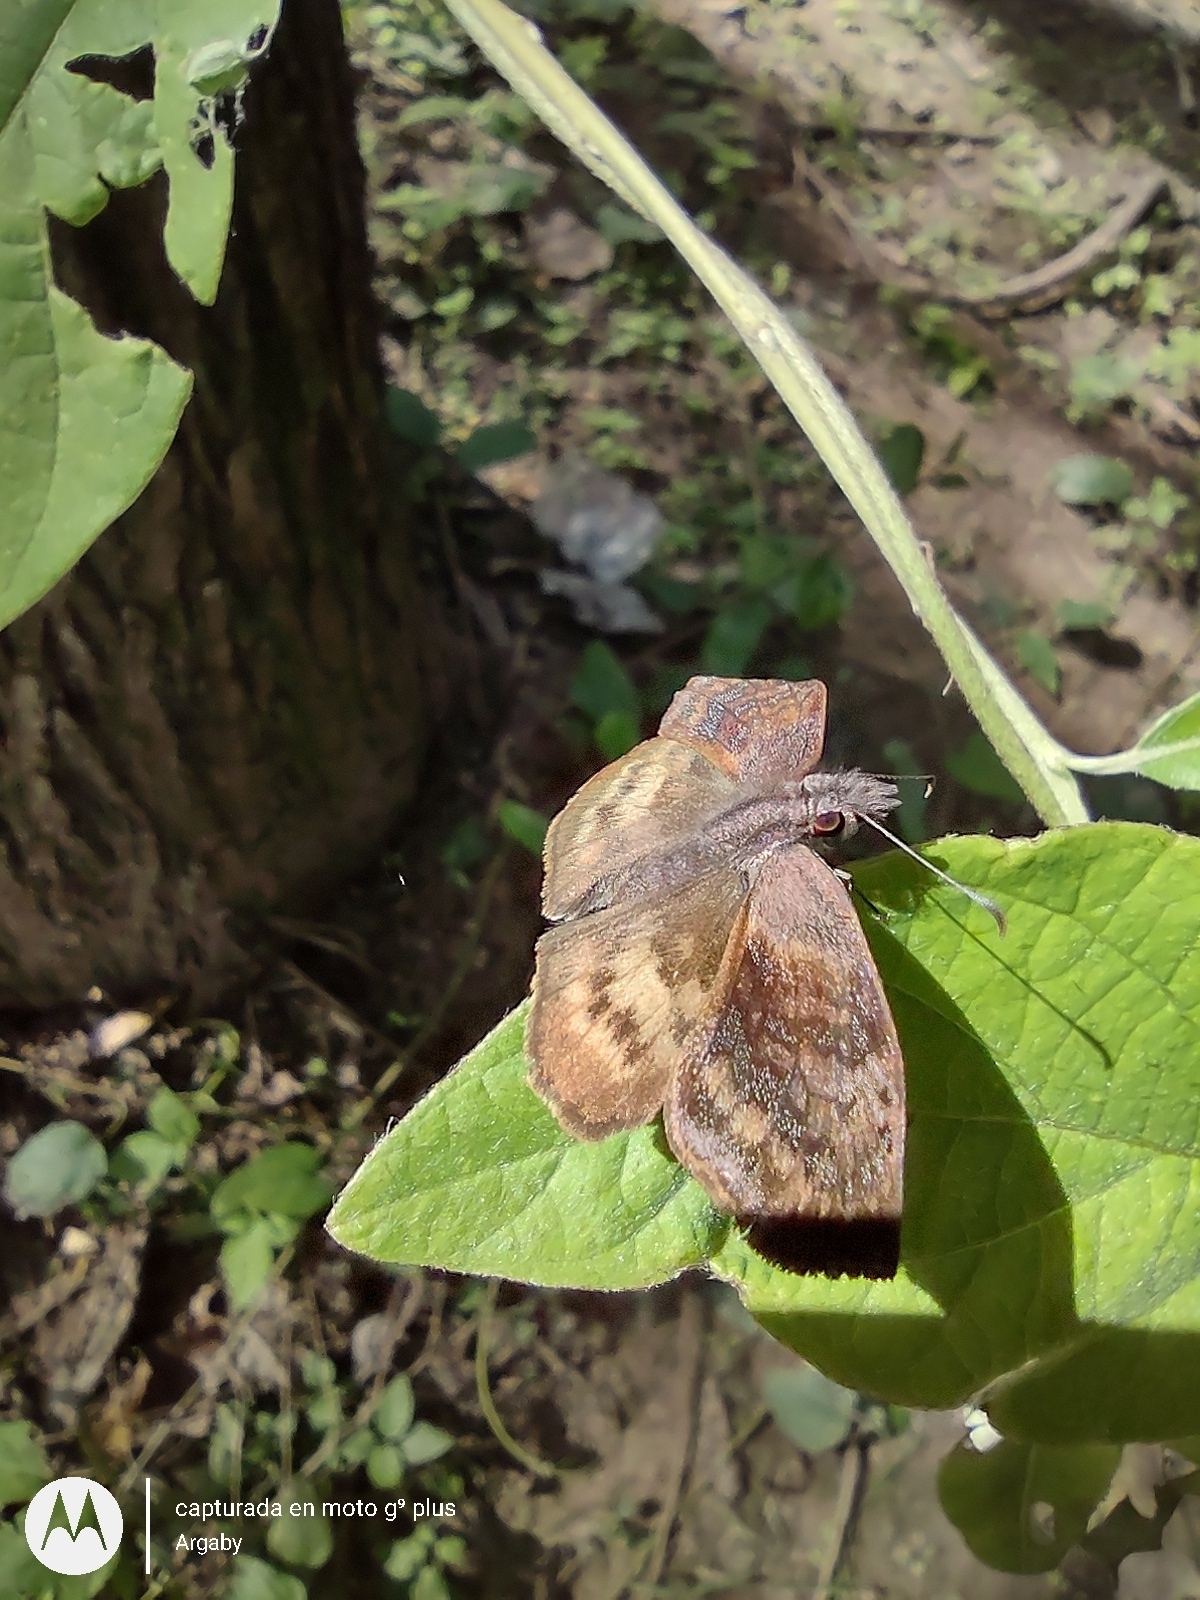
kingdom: Animalia
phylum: Arthropoda
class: Insecta
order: Lepidoptera
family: Hesperiidae
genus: Theagenes
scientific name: Theagenes dichrous
